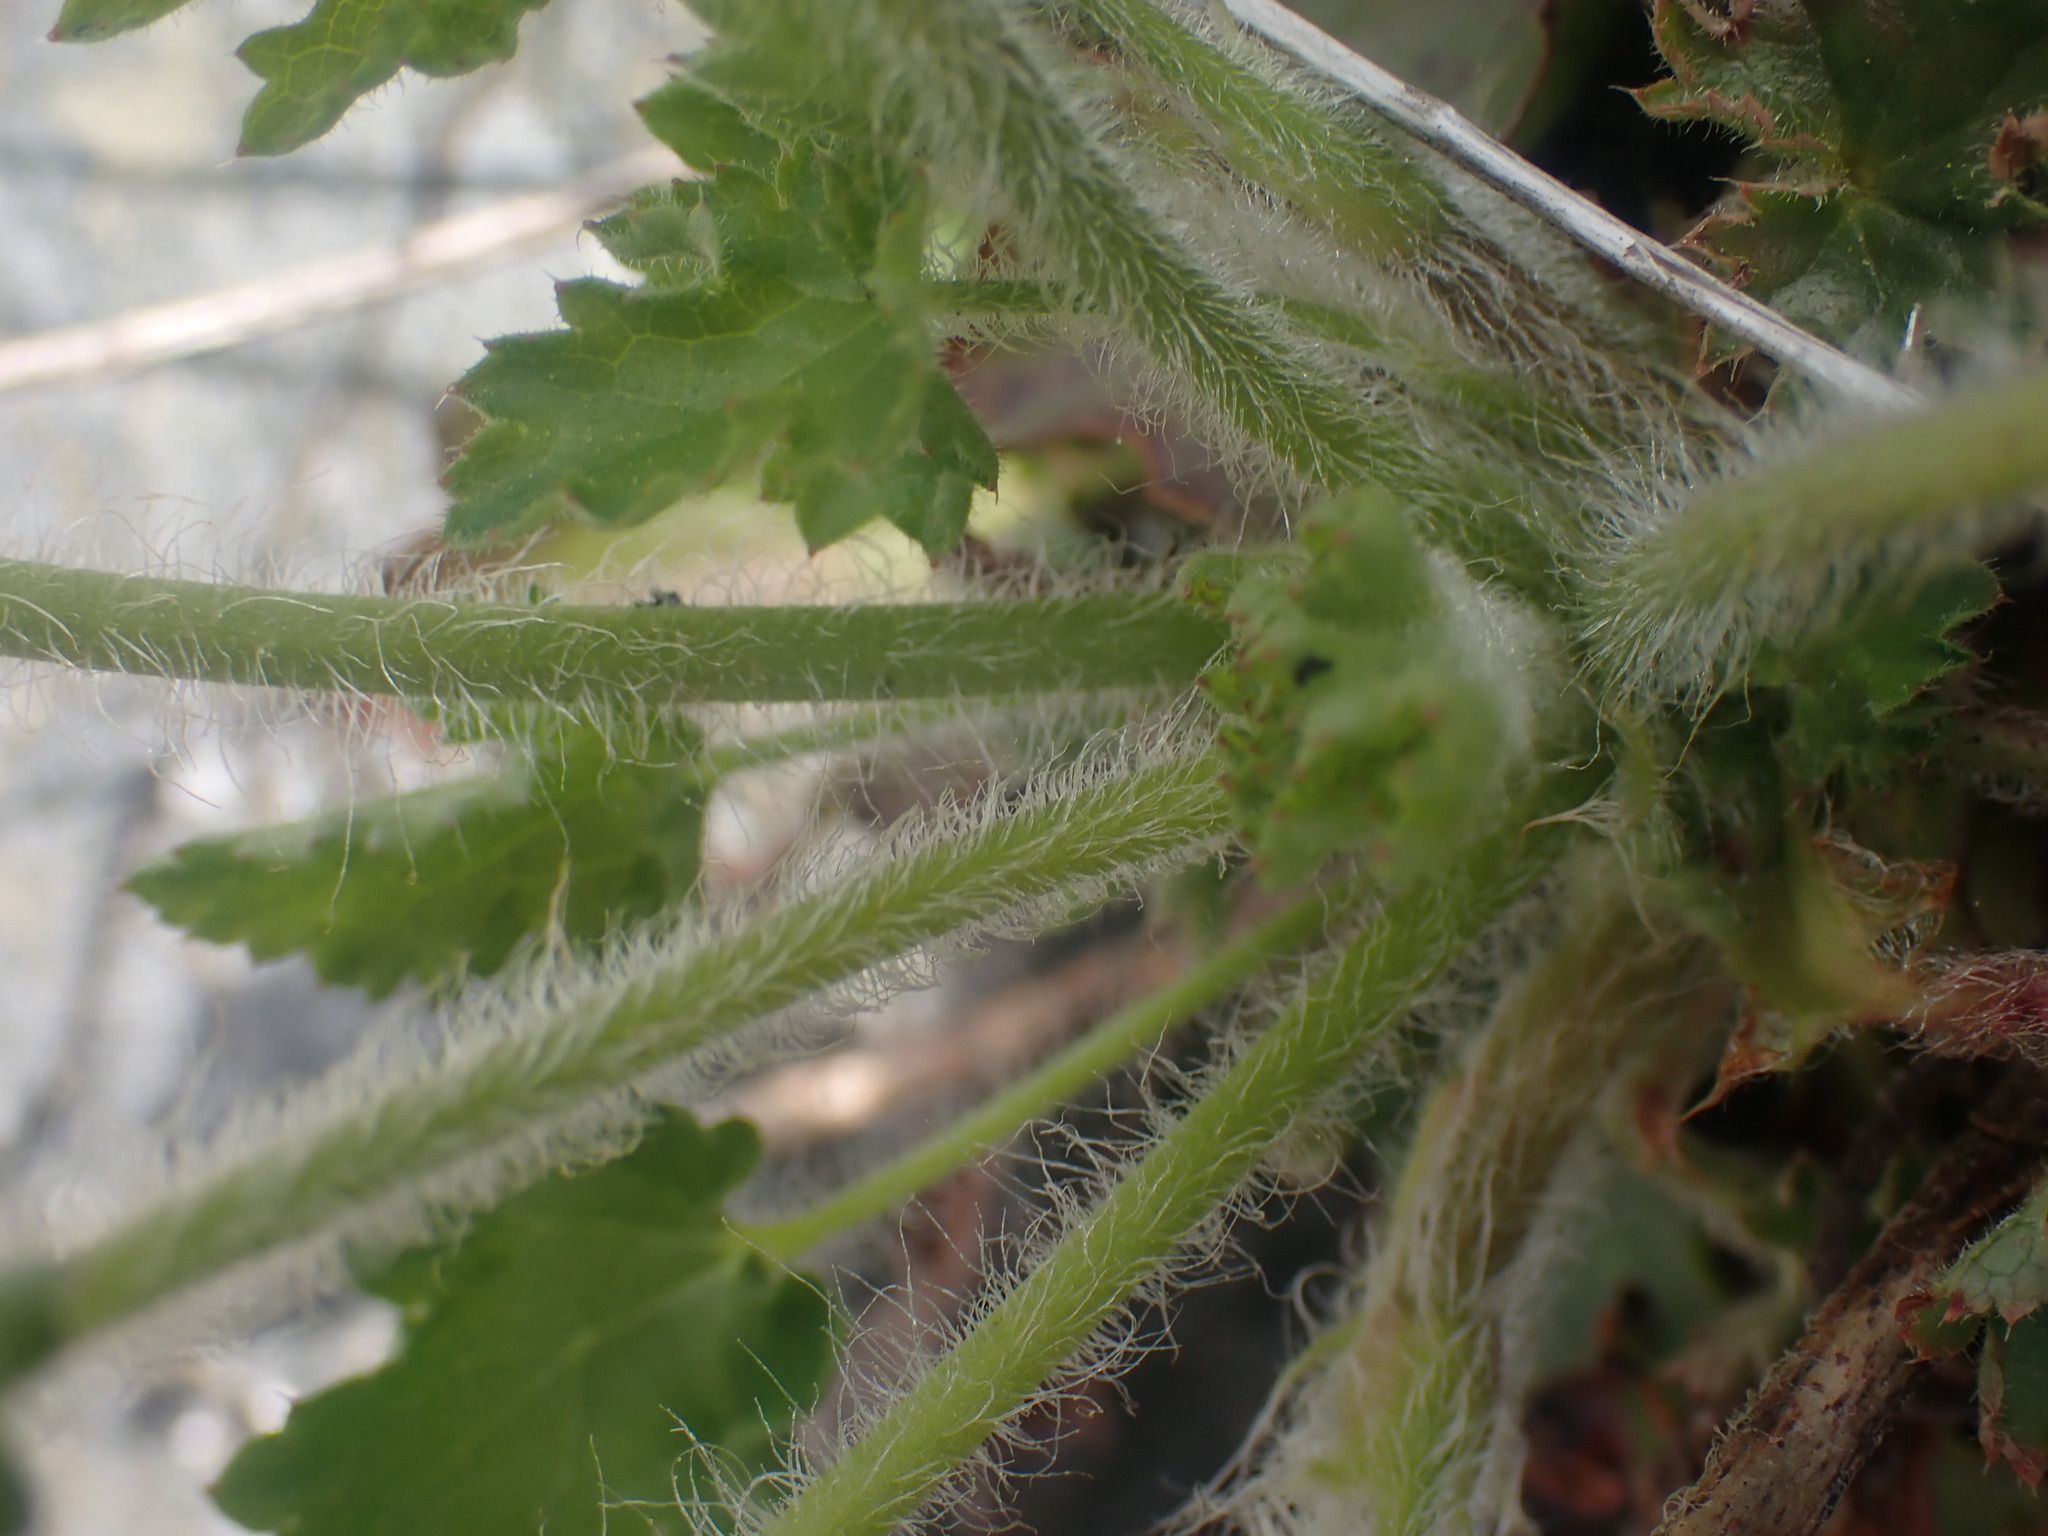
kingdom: Plantae
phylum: Tracheophyta
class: Magnoliopsida
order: Saxifragales
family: Saxifragaceae
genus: Heuchera
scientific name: Heuchera micrantha
